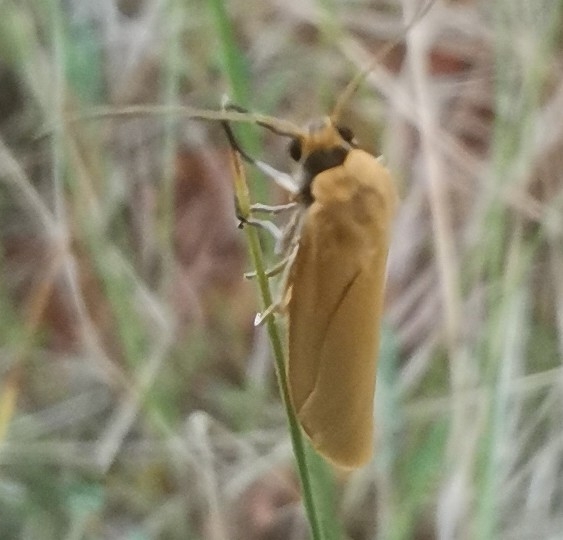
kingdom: Animalia
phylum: Arthropoda
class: Insecta
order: Lepidoptera
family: Erebidae
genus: Indalia
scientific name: Indalia lutarella
